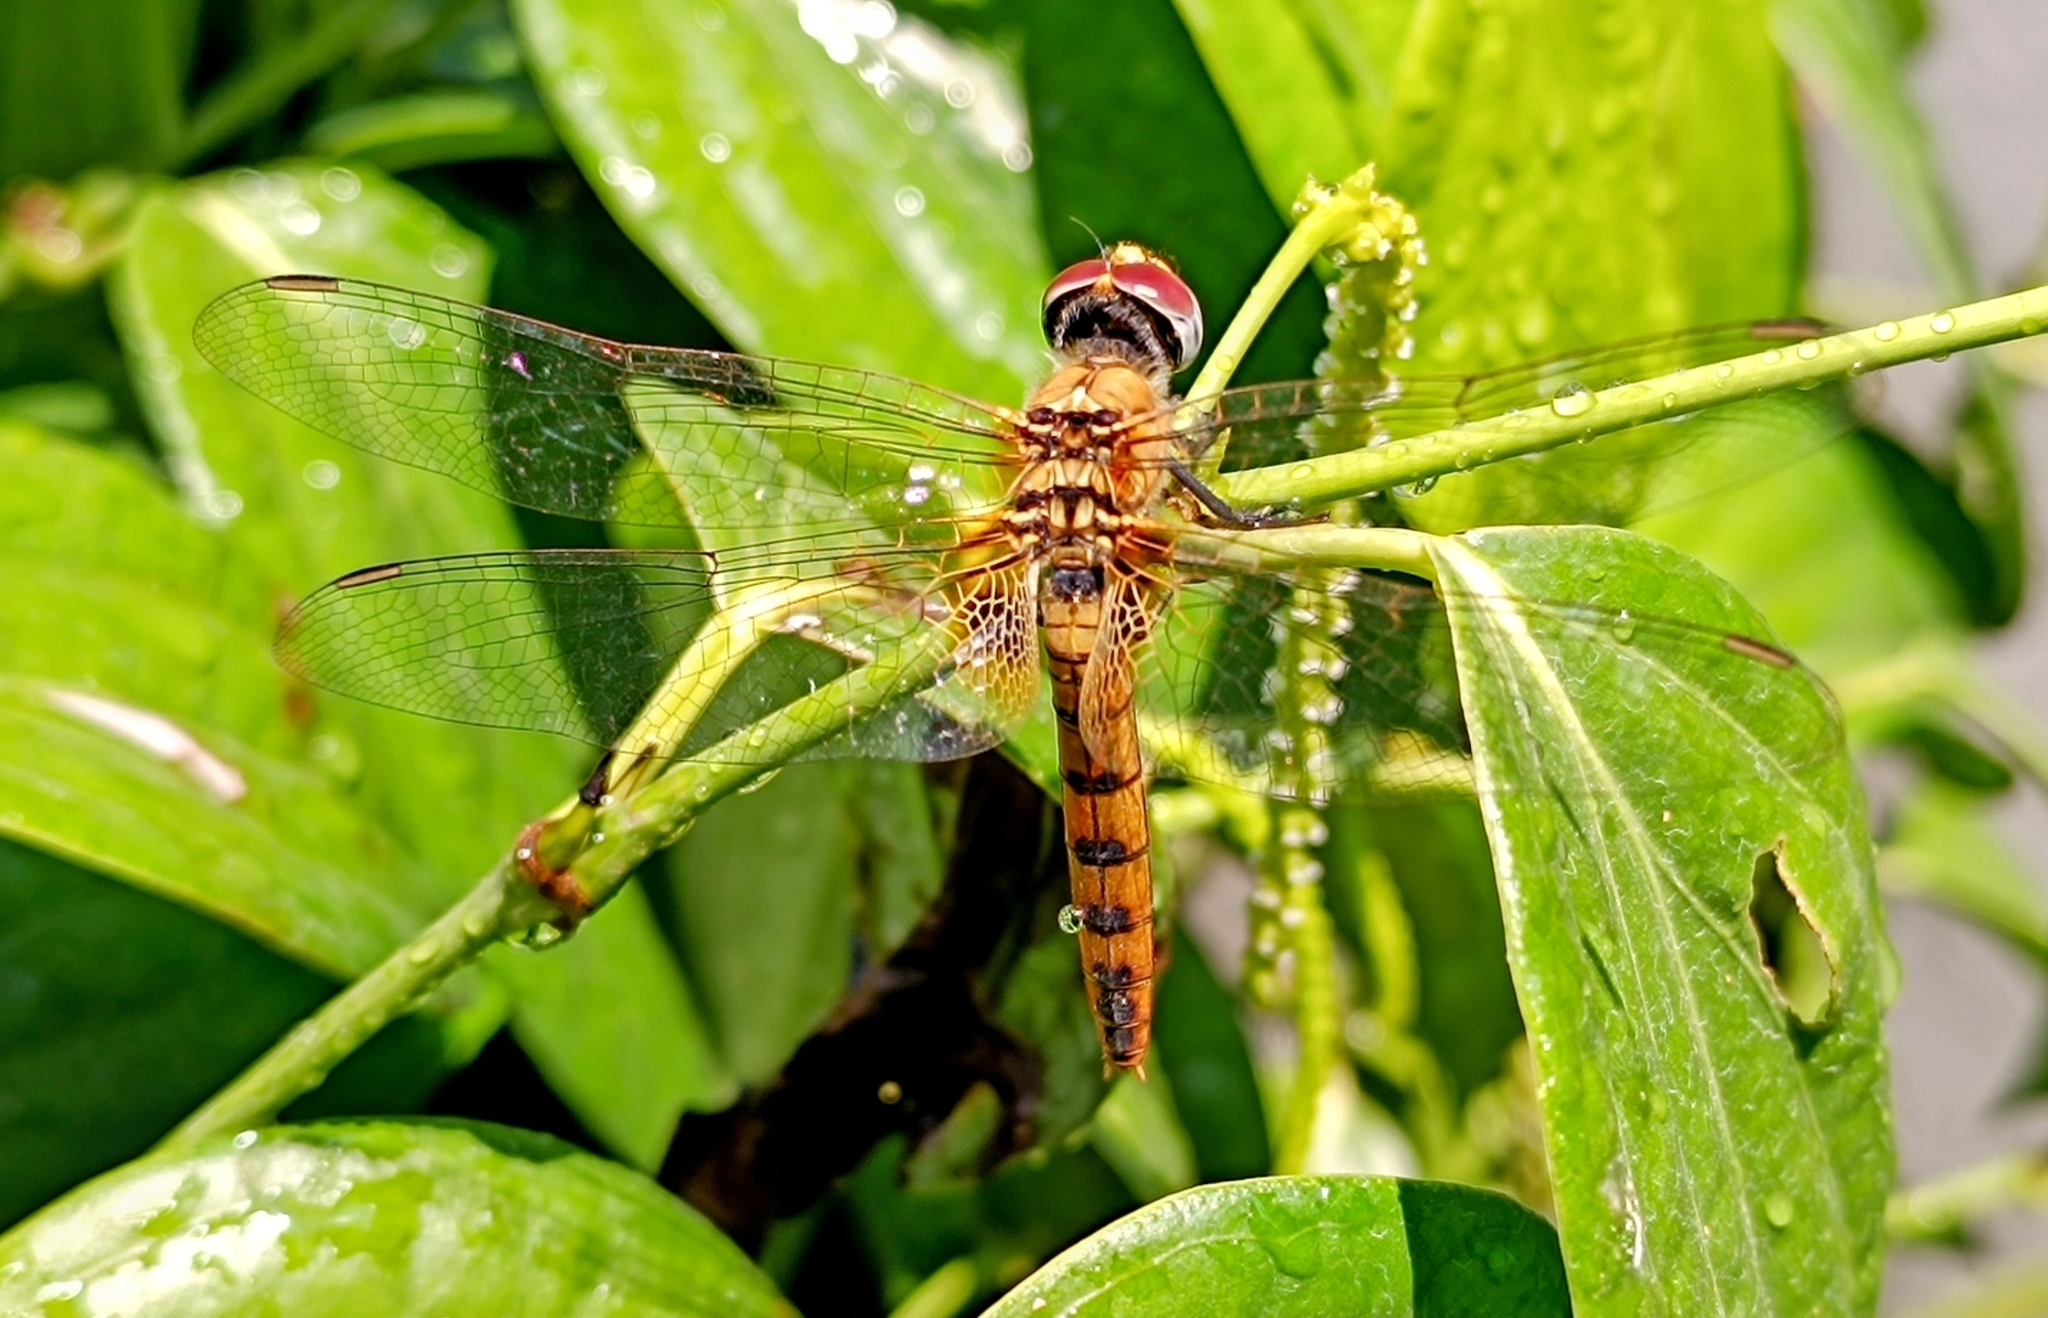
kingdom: Animalia
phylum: Arthropoda
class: Insecta
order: Odonata
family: Libellulidae
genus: Urothemis
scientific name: Urothemis signata
